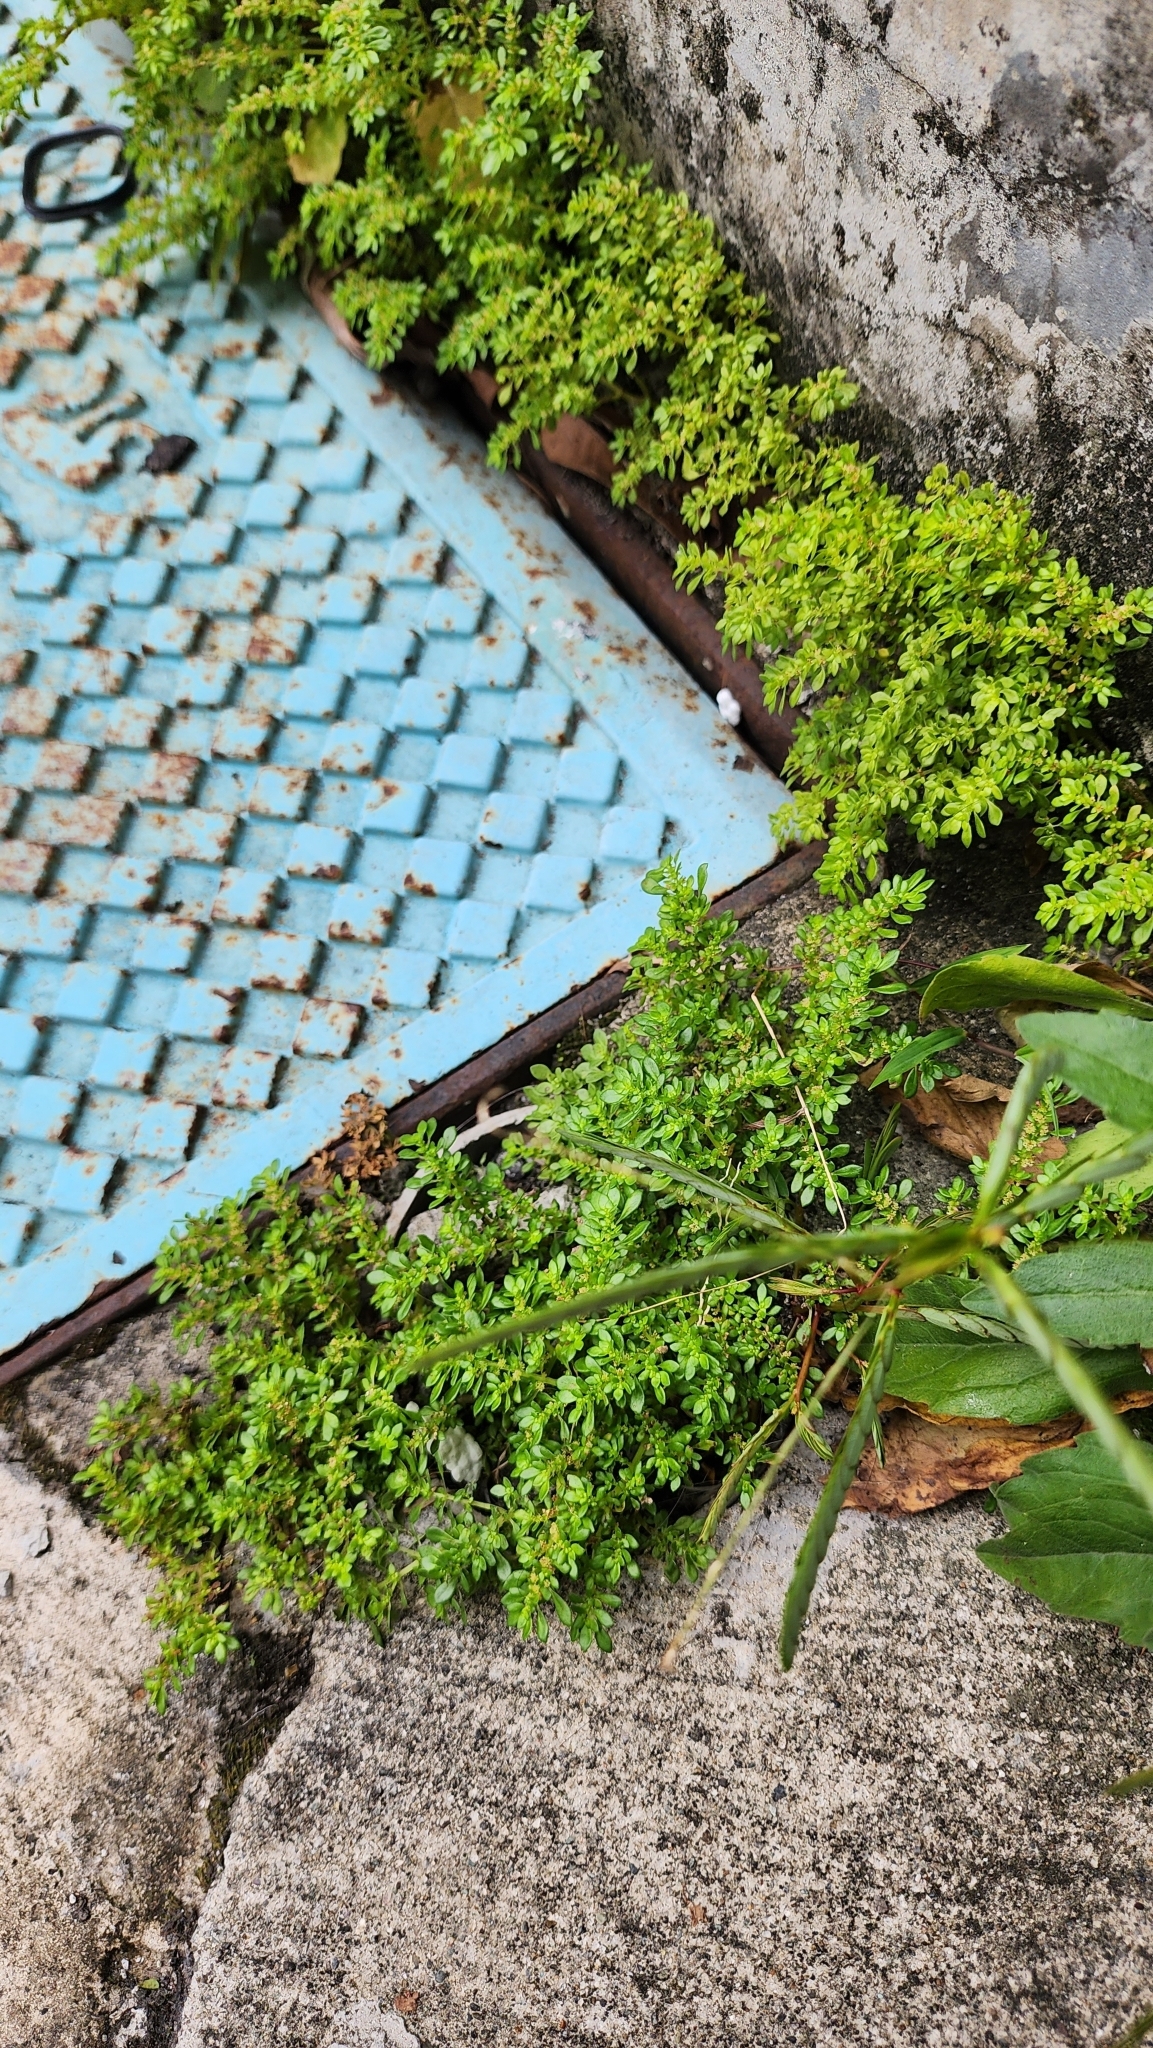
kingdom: Plantae
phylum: Tracheophyta
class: Magnoliopsida
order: Rosales
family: Urticaceae
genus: Pilea
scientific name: Pilea microphylla
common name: Artillery-plant
